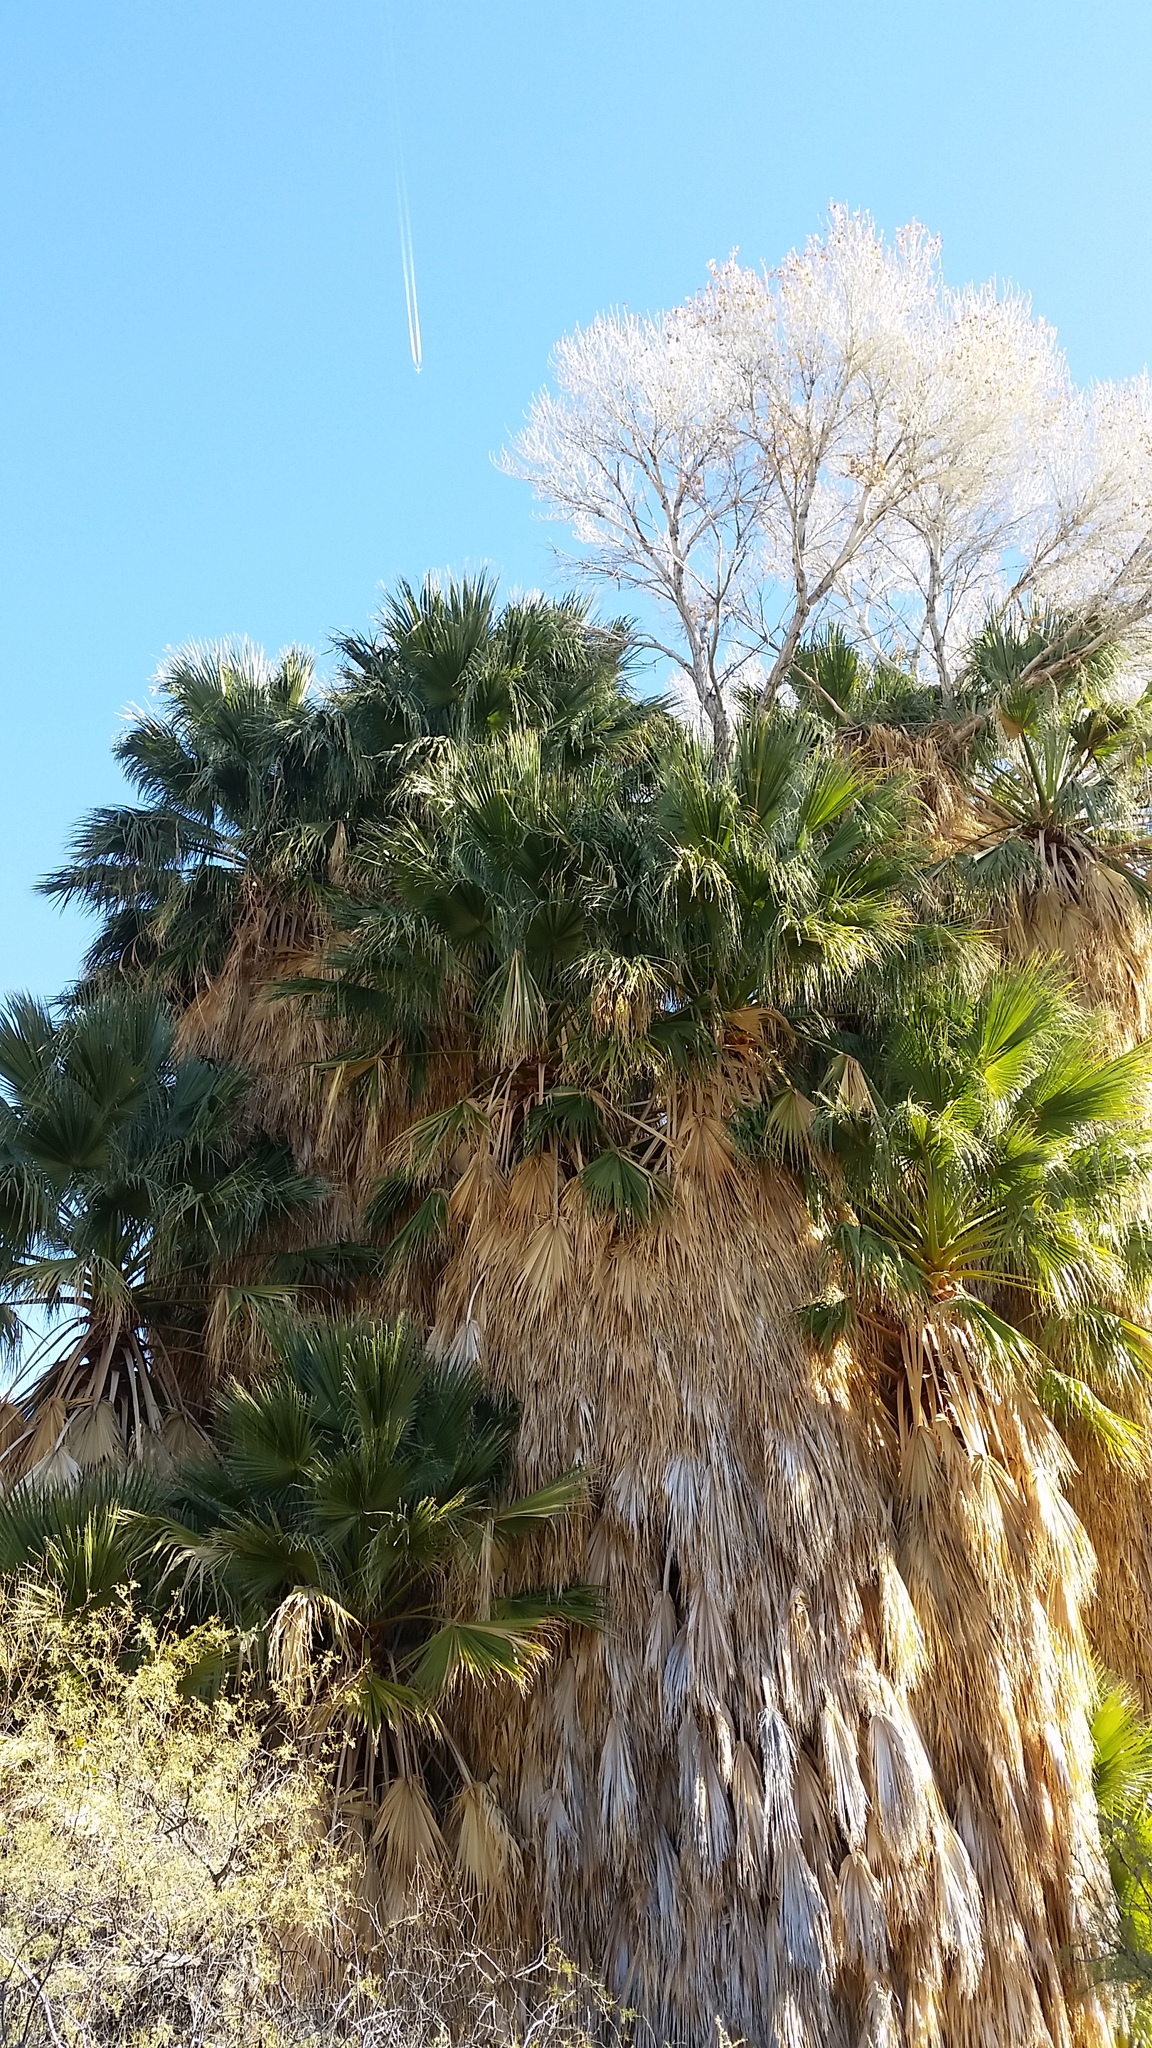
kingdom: Plantae
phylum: Tracheophyta
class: Liliopsida
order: Arecales
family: Arecaceae
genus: Washingtonia
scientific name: Washingtonia filifera
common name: California fan palm
